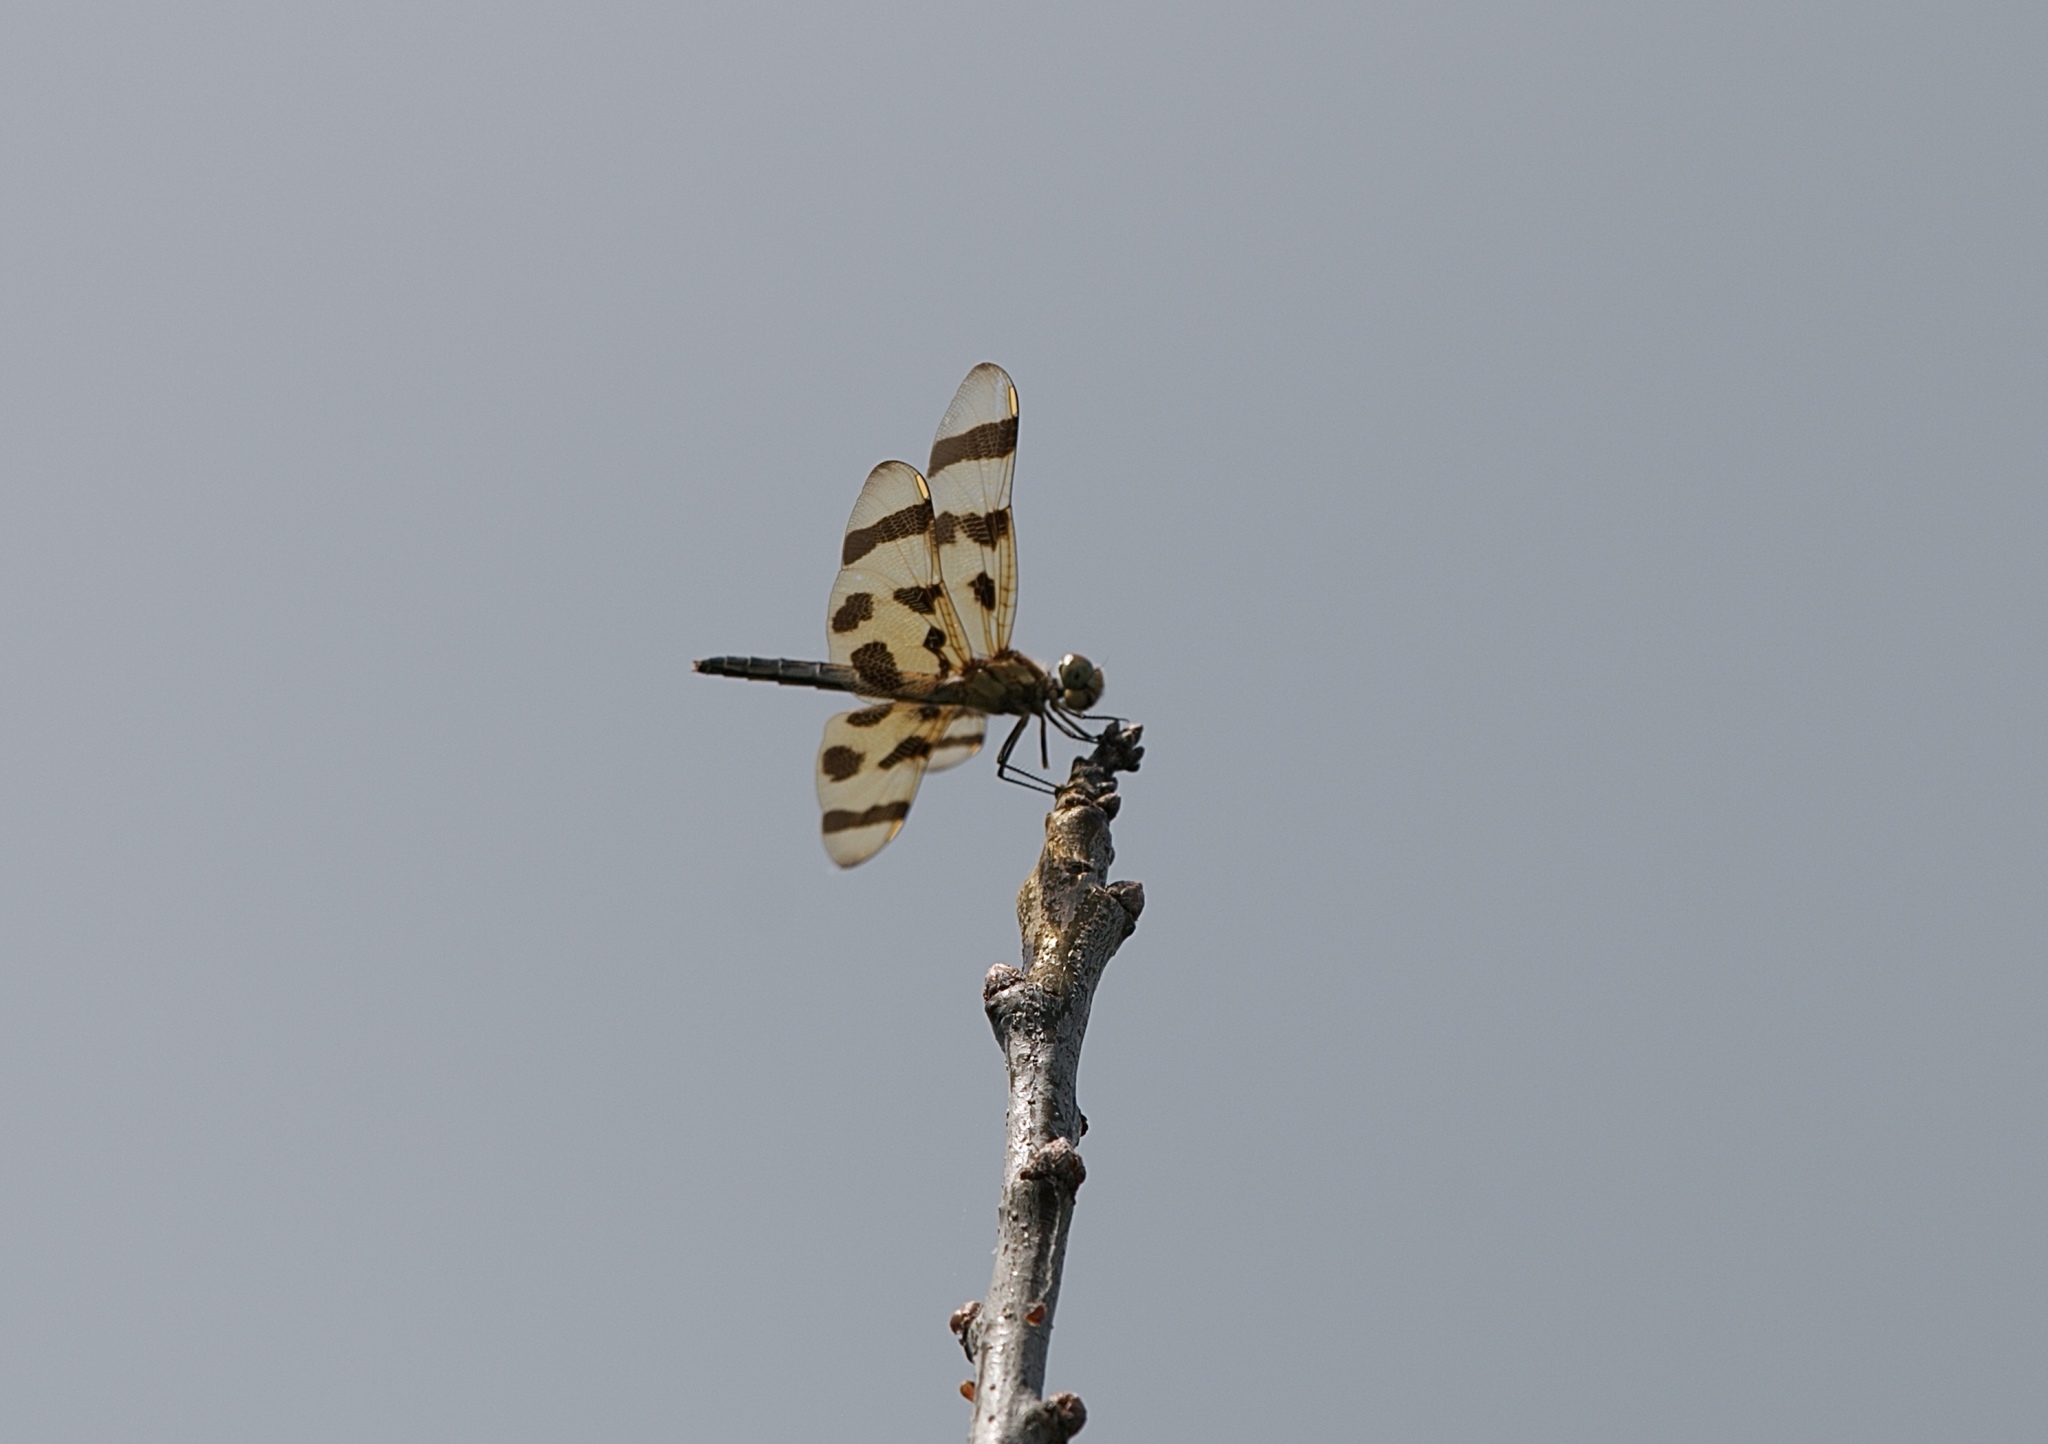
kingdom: Animalia
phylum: Arthropoda
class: Insecta
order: Odonata
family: Libellulidae
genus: Celithemis
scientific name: Celithemis eponina
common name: Halloween pennant
